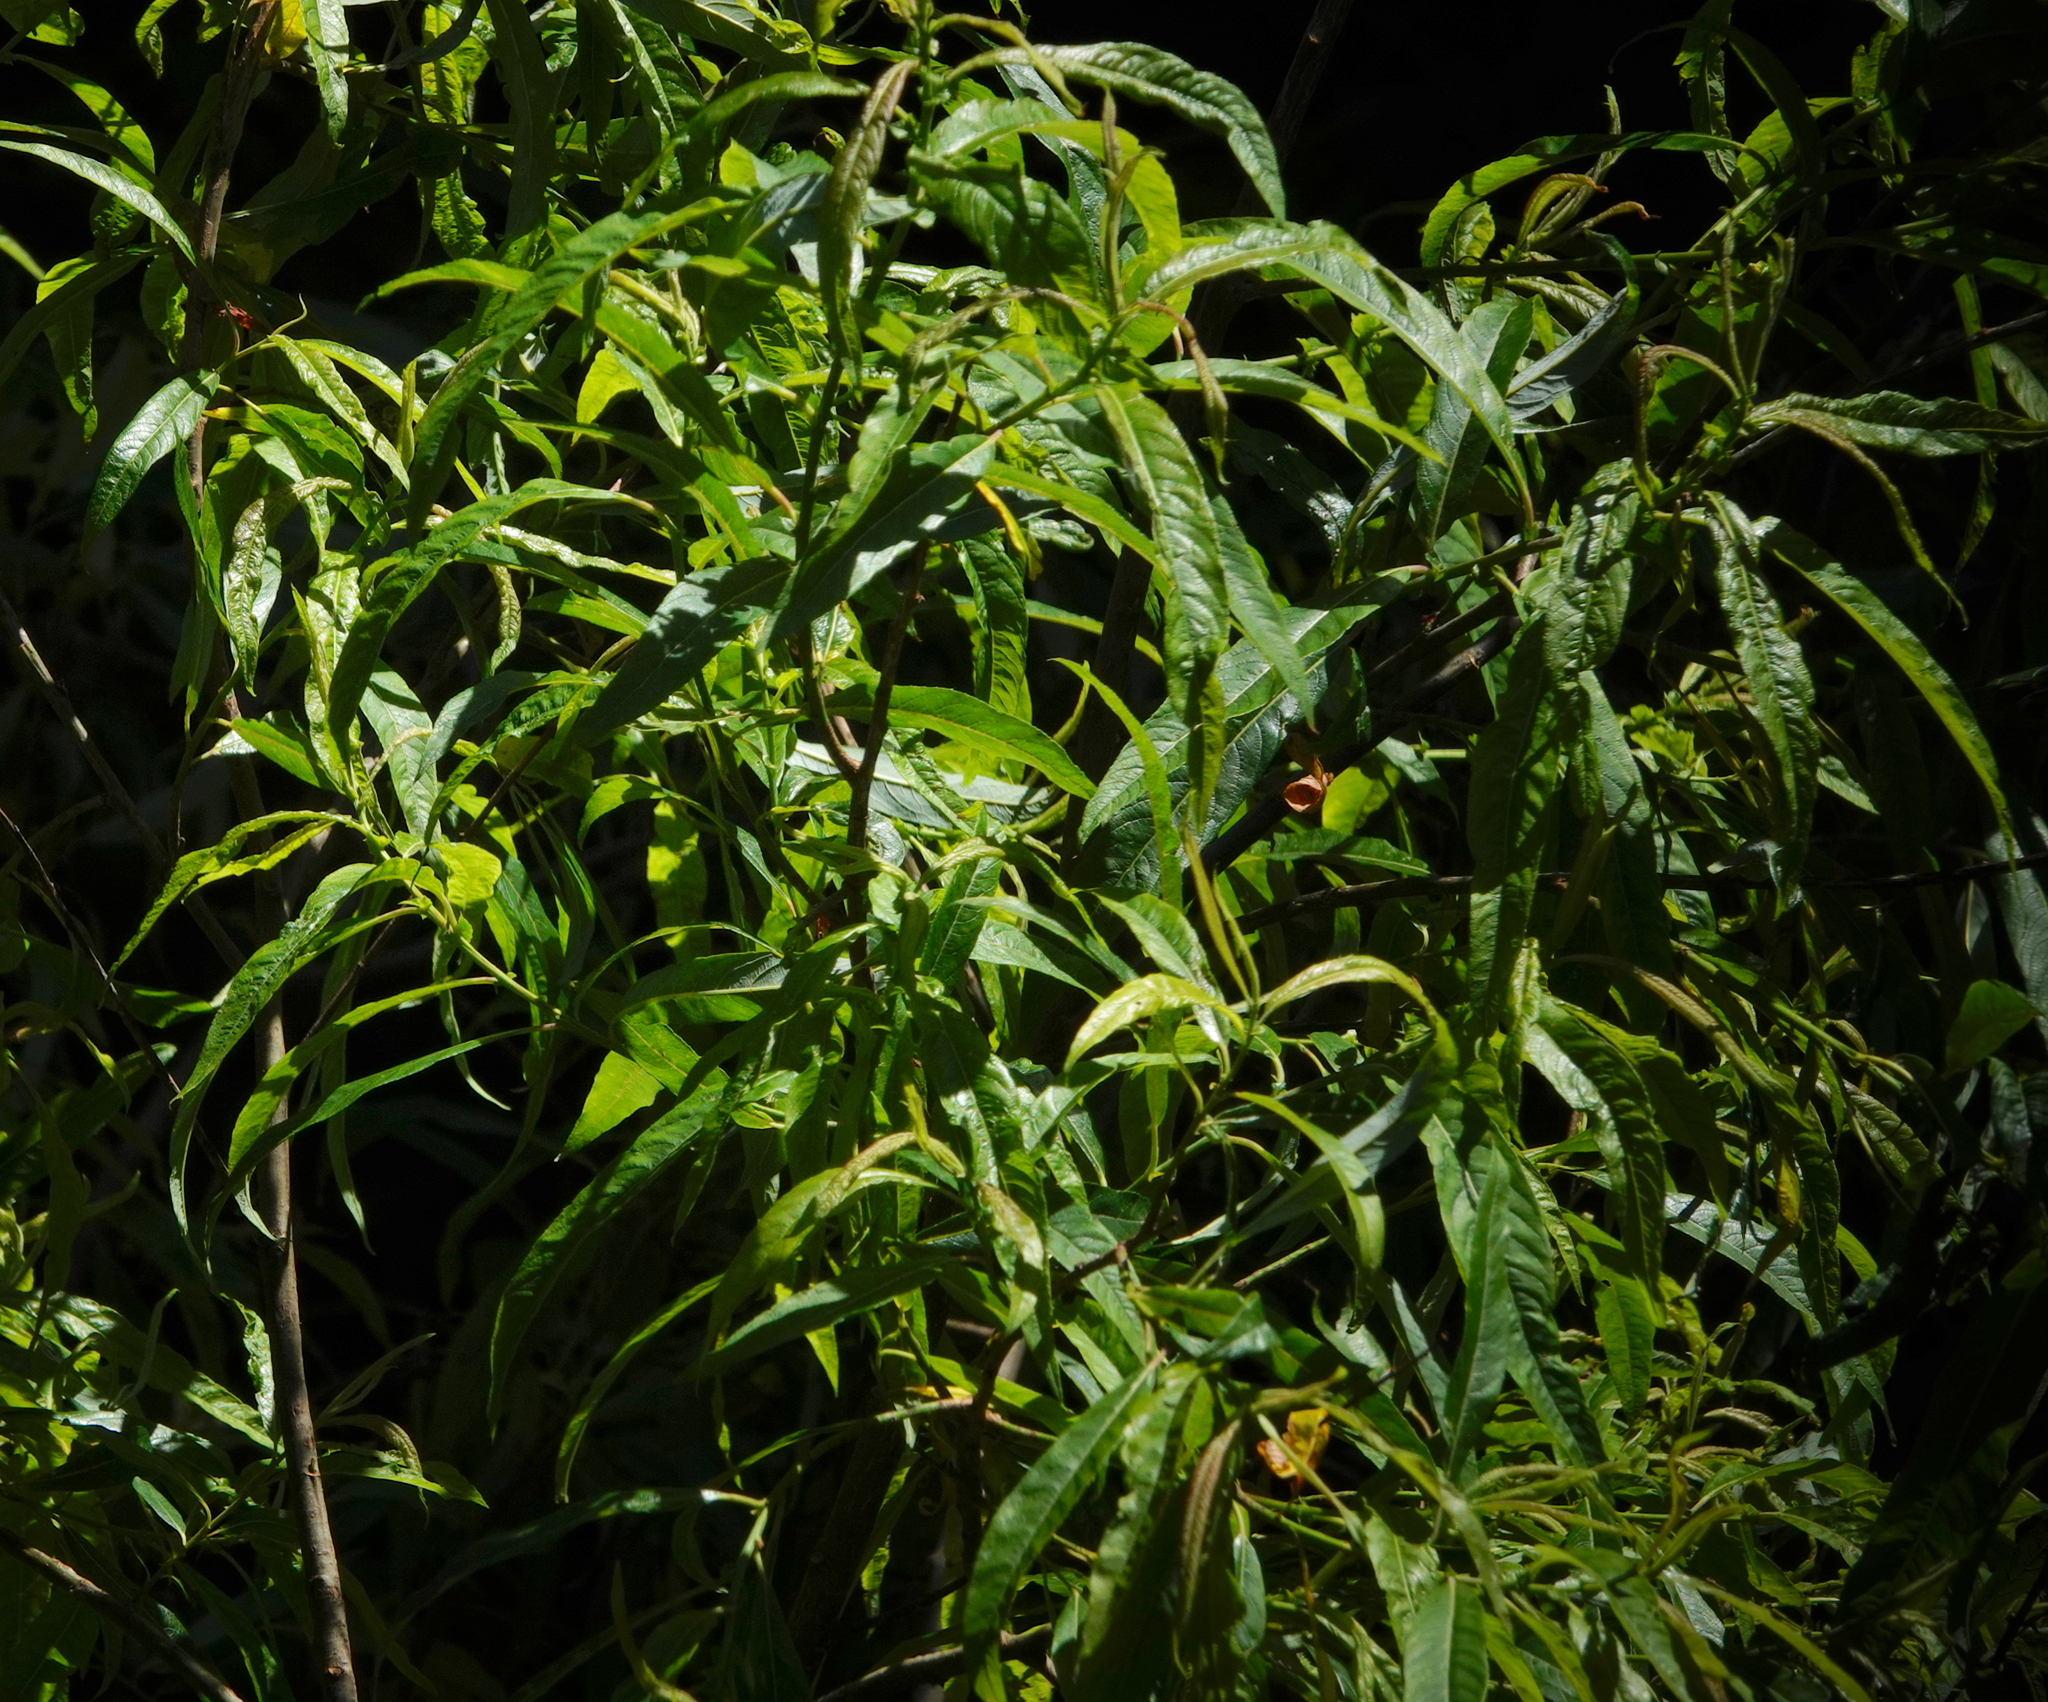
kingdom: Plantae
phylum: Tracheophyta
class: Magnoliopsida
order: Malpighiales
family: Salicaceae
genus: Salix
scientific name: Salix canariensis
